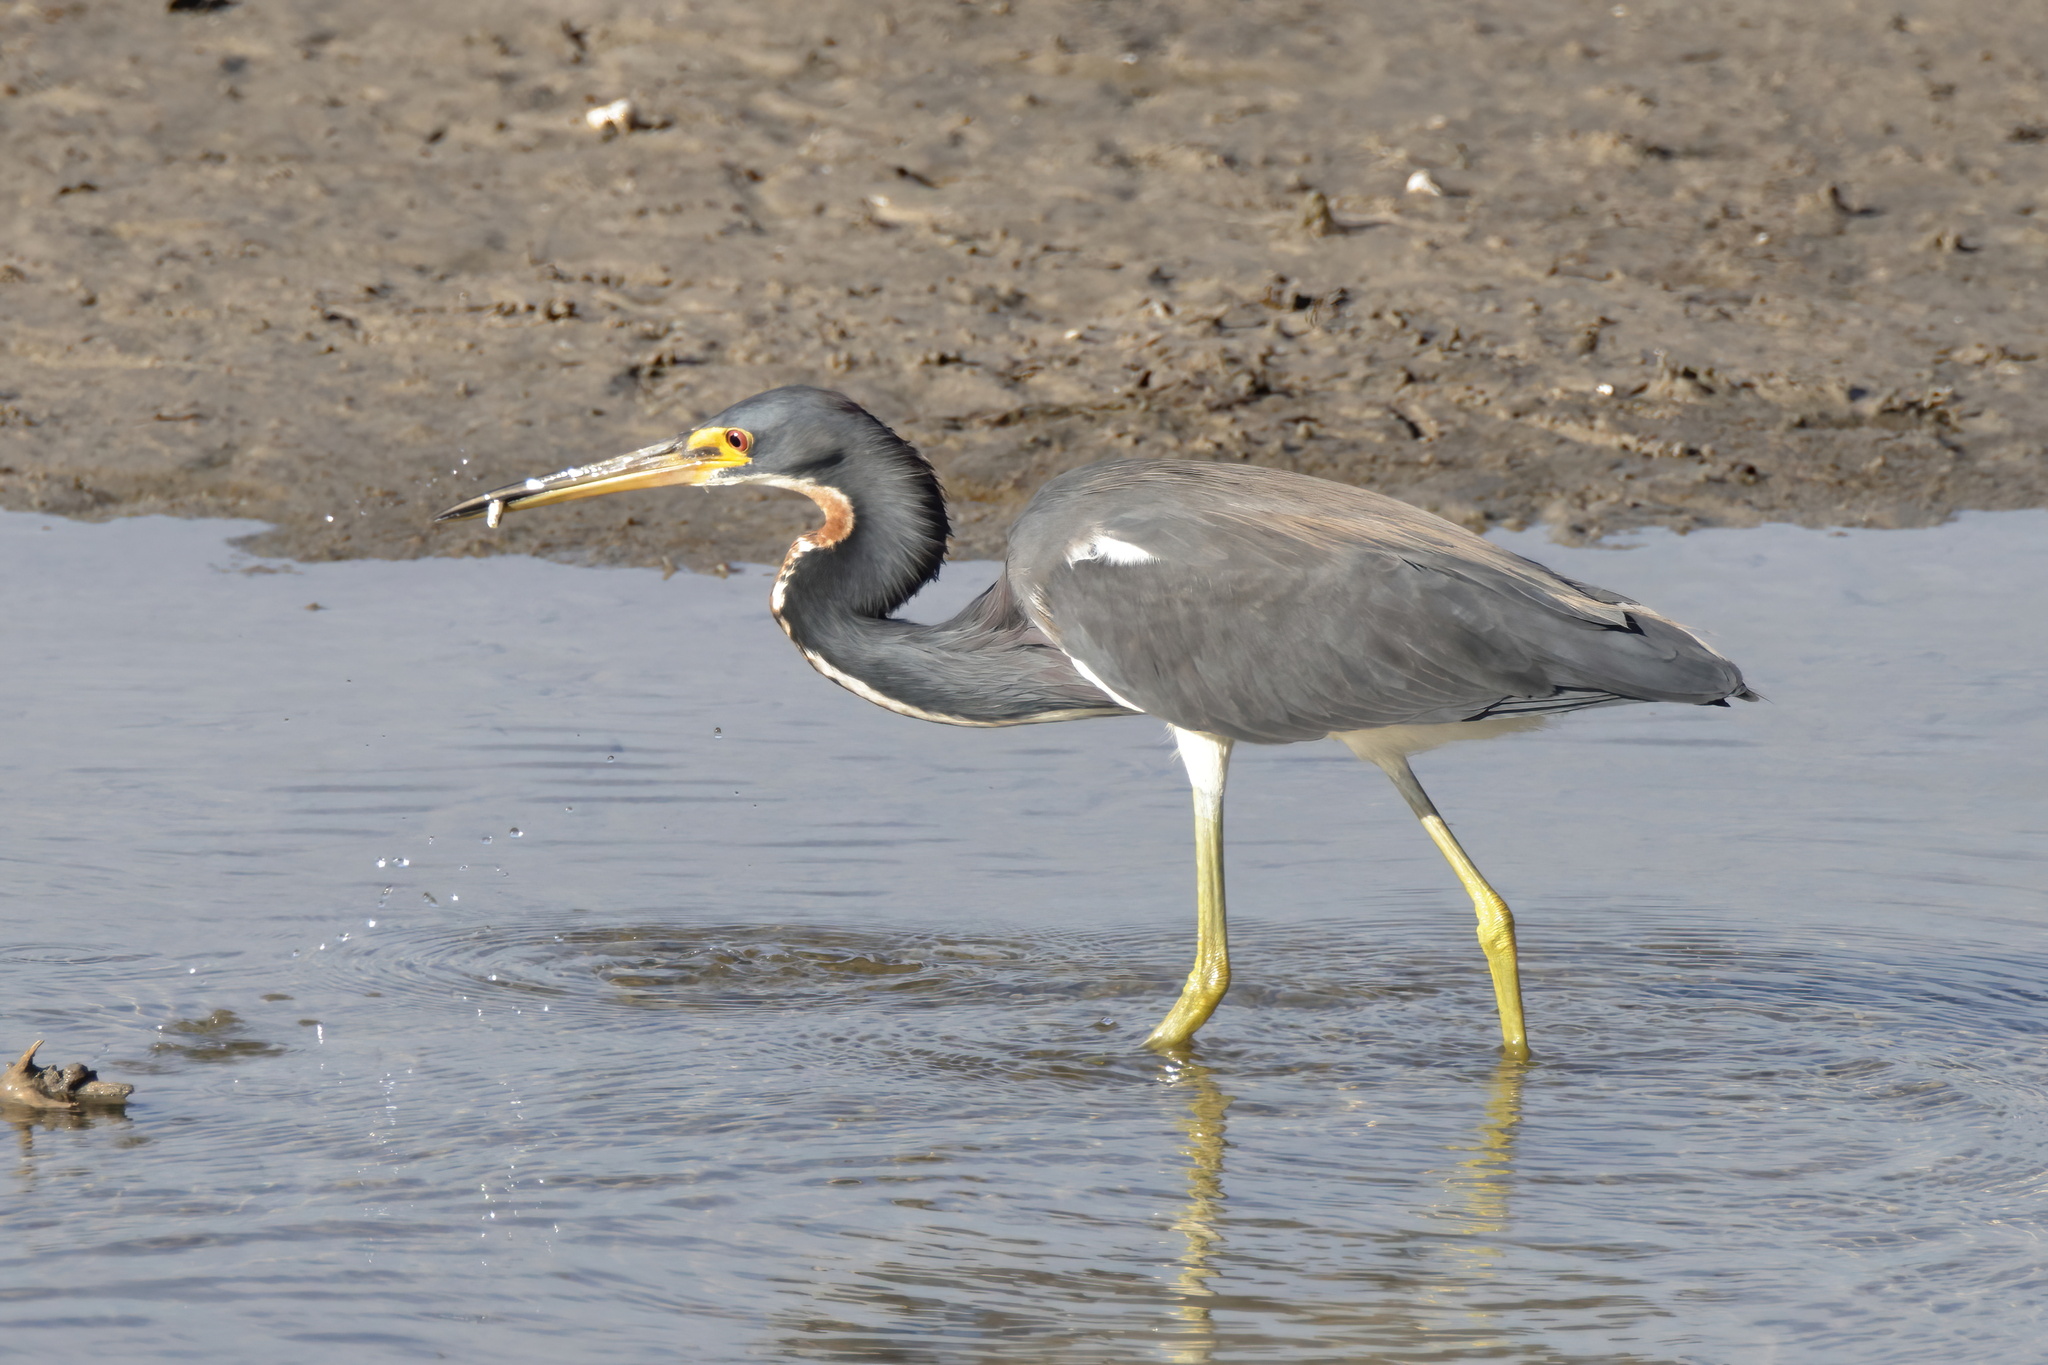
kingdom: Animalia
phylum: Chordata
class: Aves
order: Pelecaniformes
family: Ardeidae
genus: Egretta
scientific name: Egretta tricolor
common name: Tricolored heron
